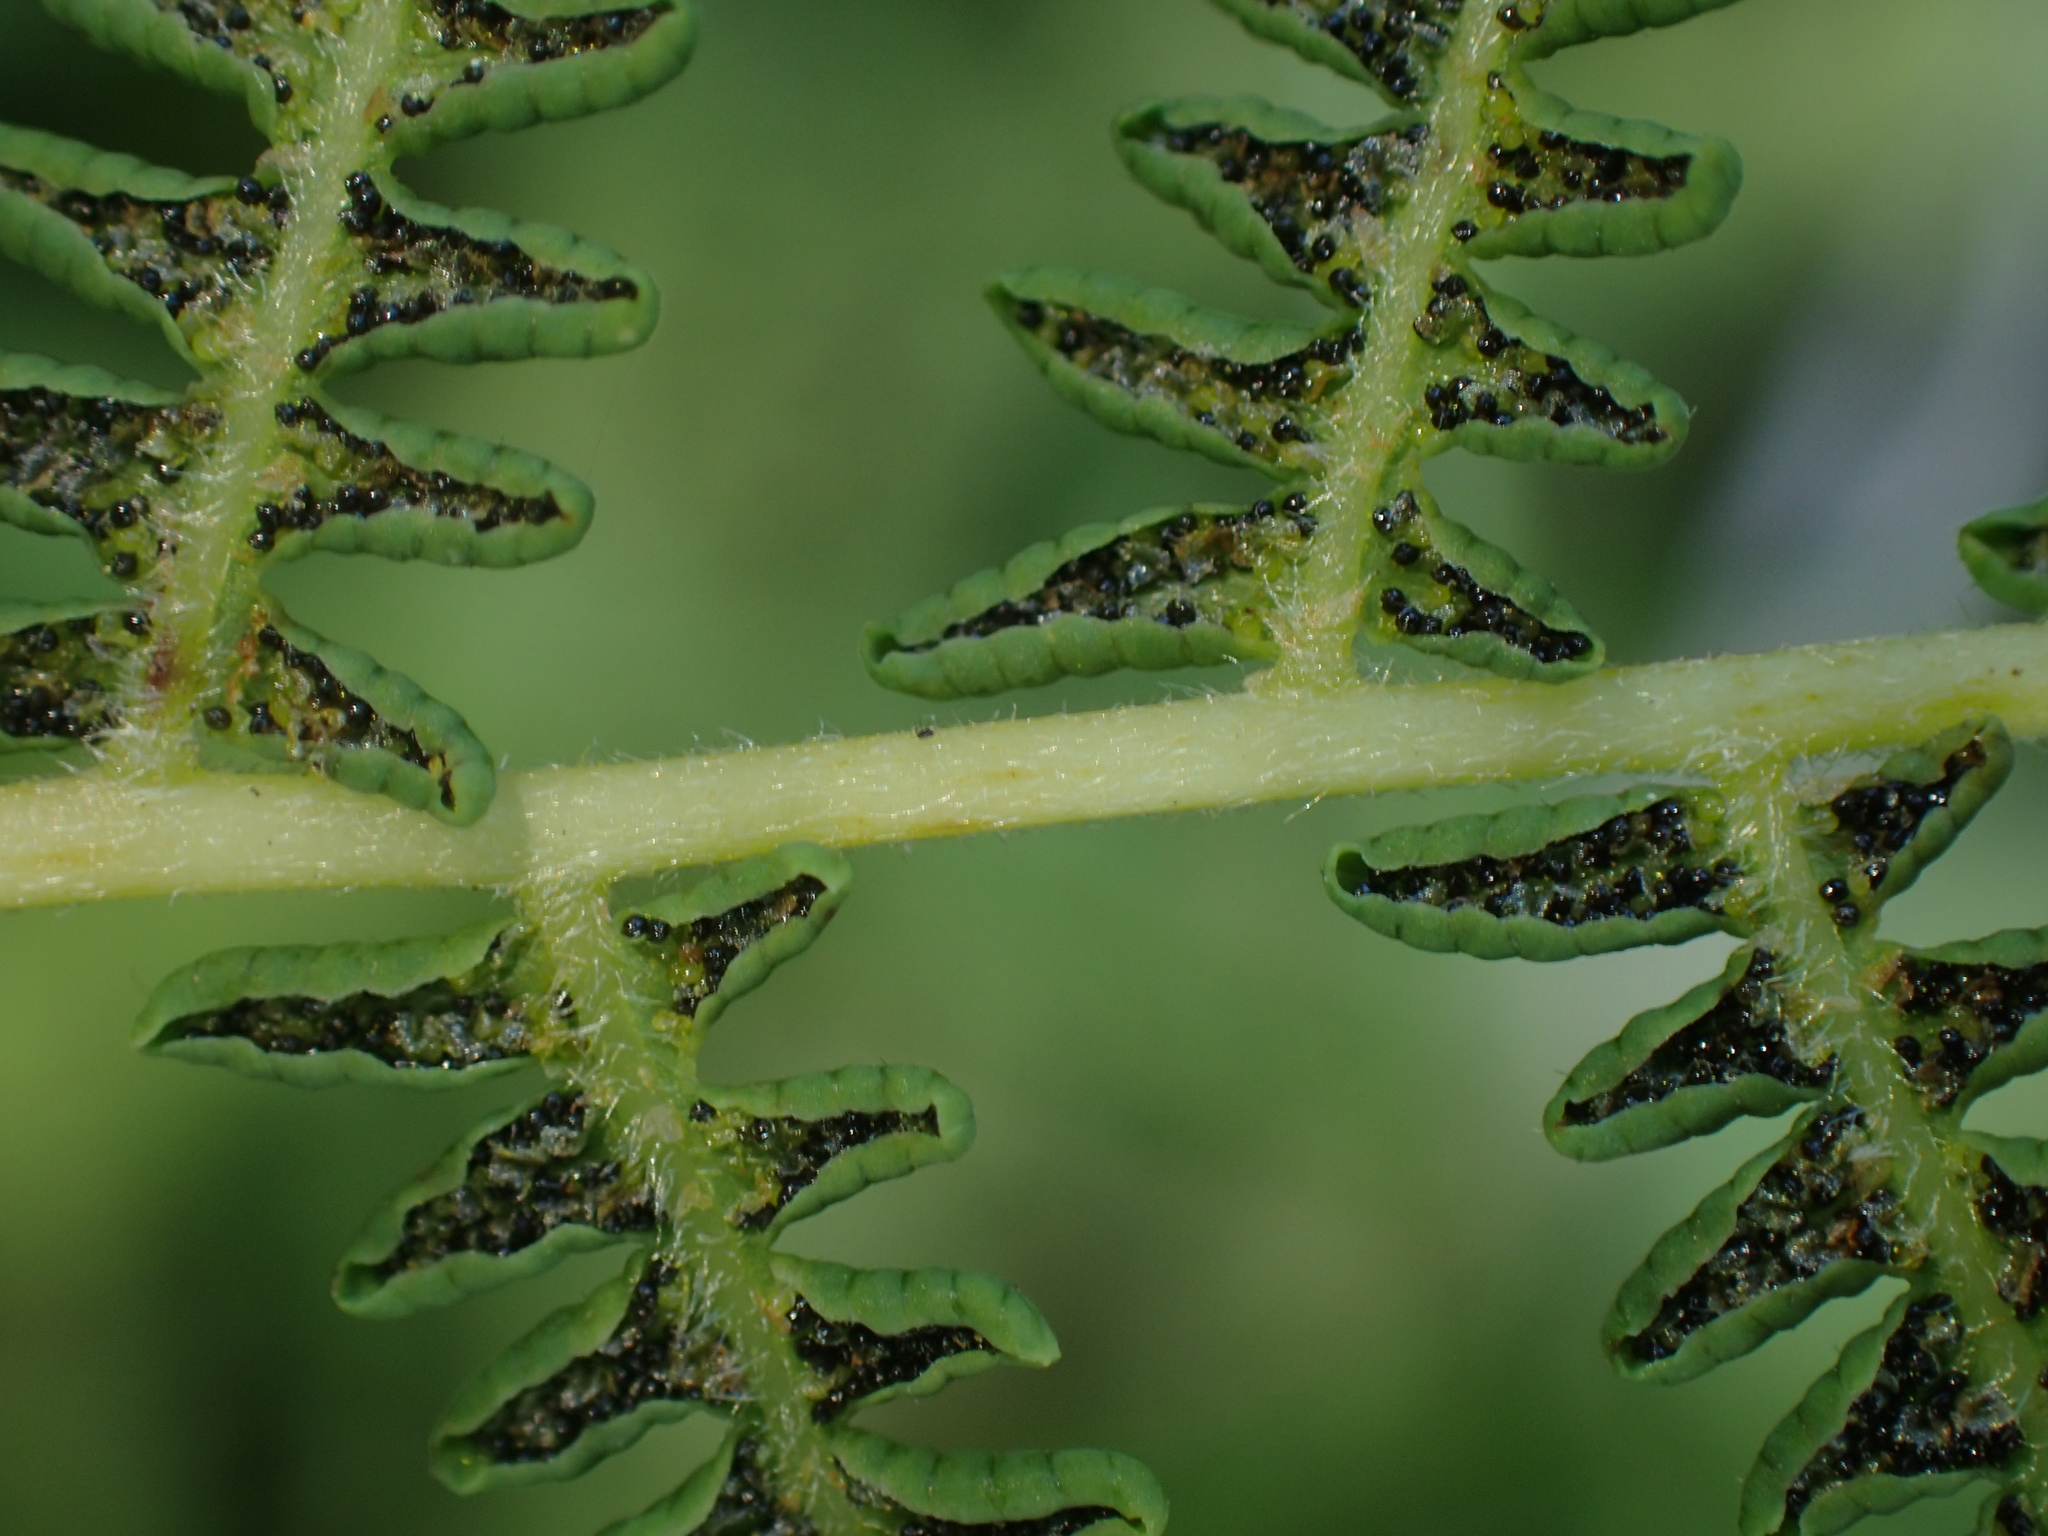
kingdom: Plantae
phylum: Tracheophyta
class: Polypodiopsida
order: Polypodiales
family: Thelypteridaceae
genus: Thelypteris
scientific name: Thelypteris palustris
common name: Marsh fern
